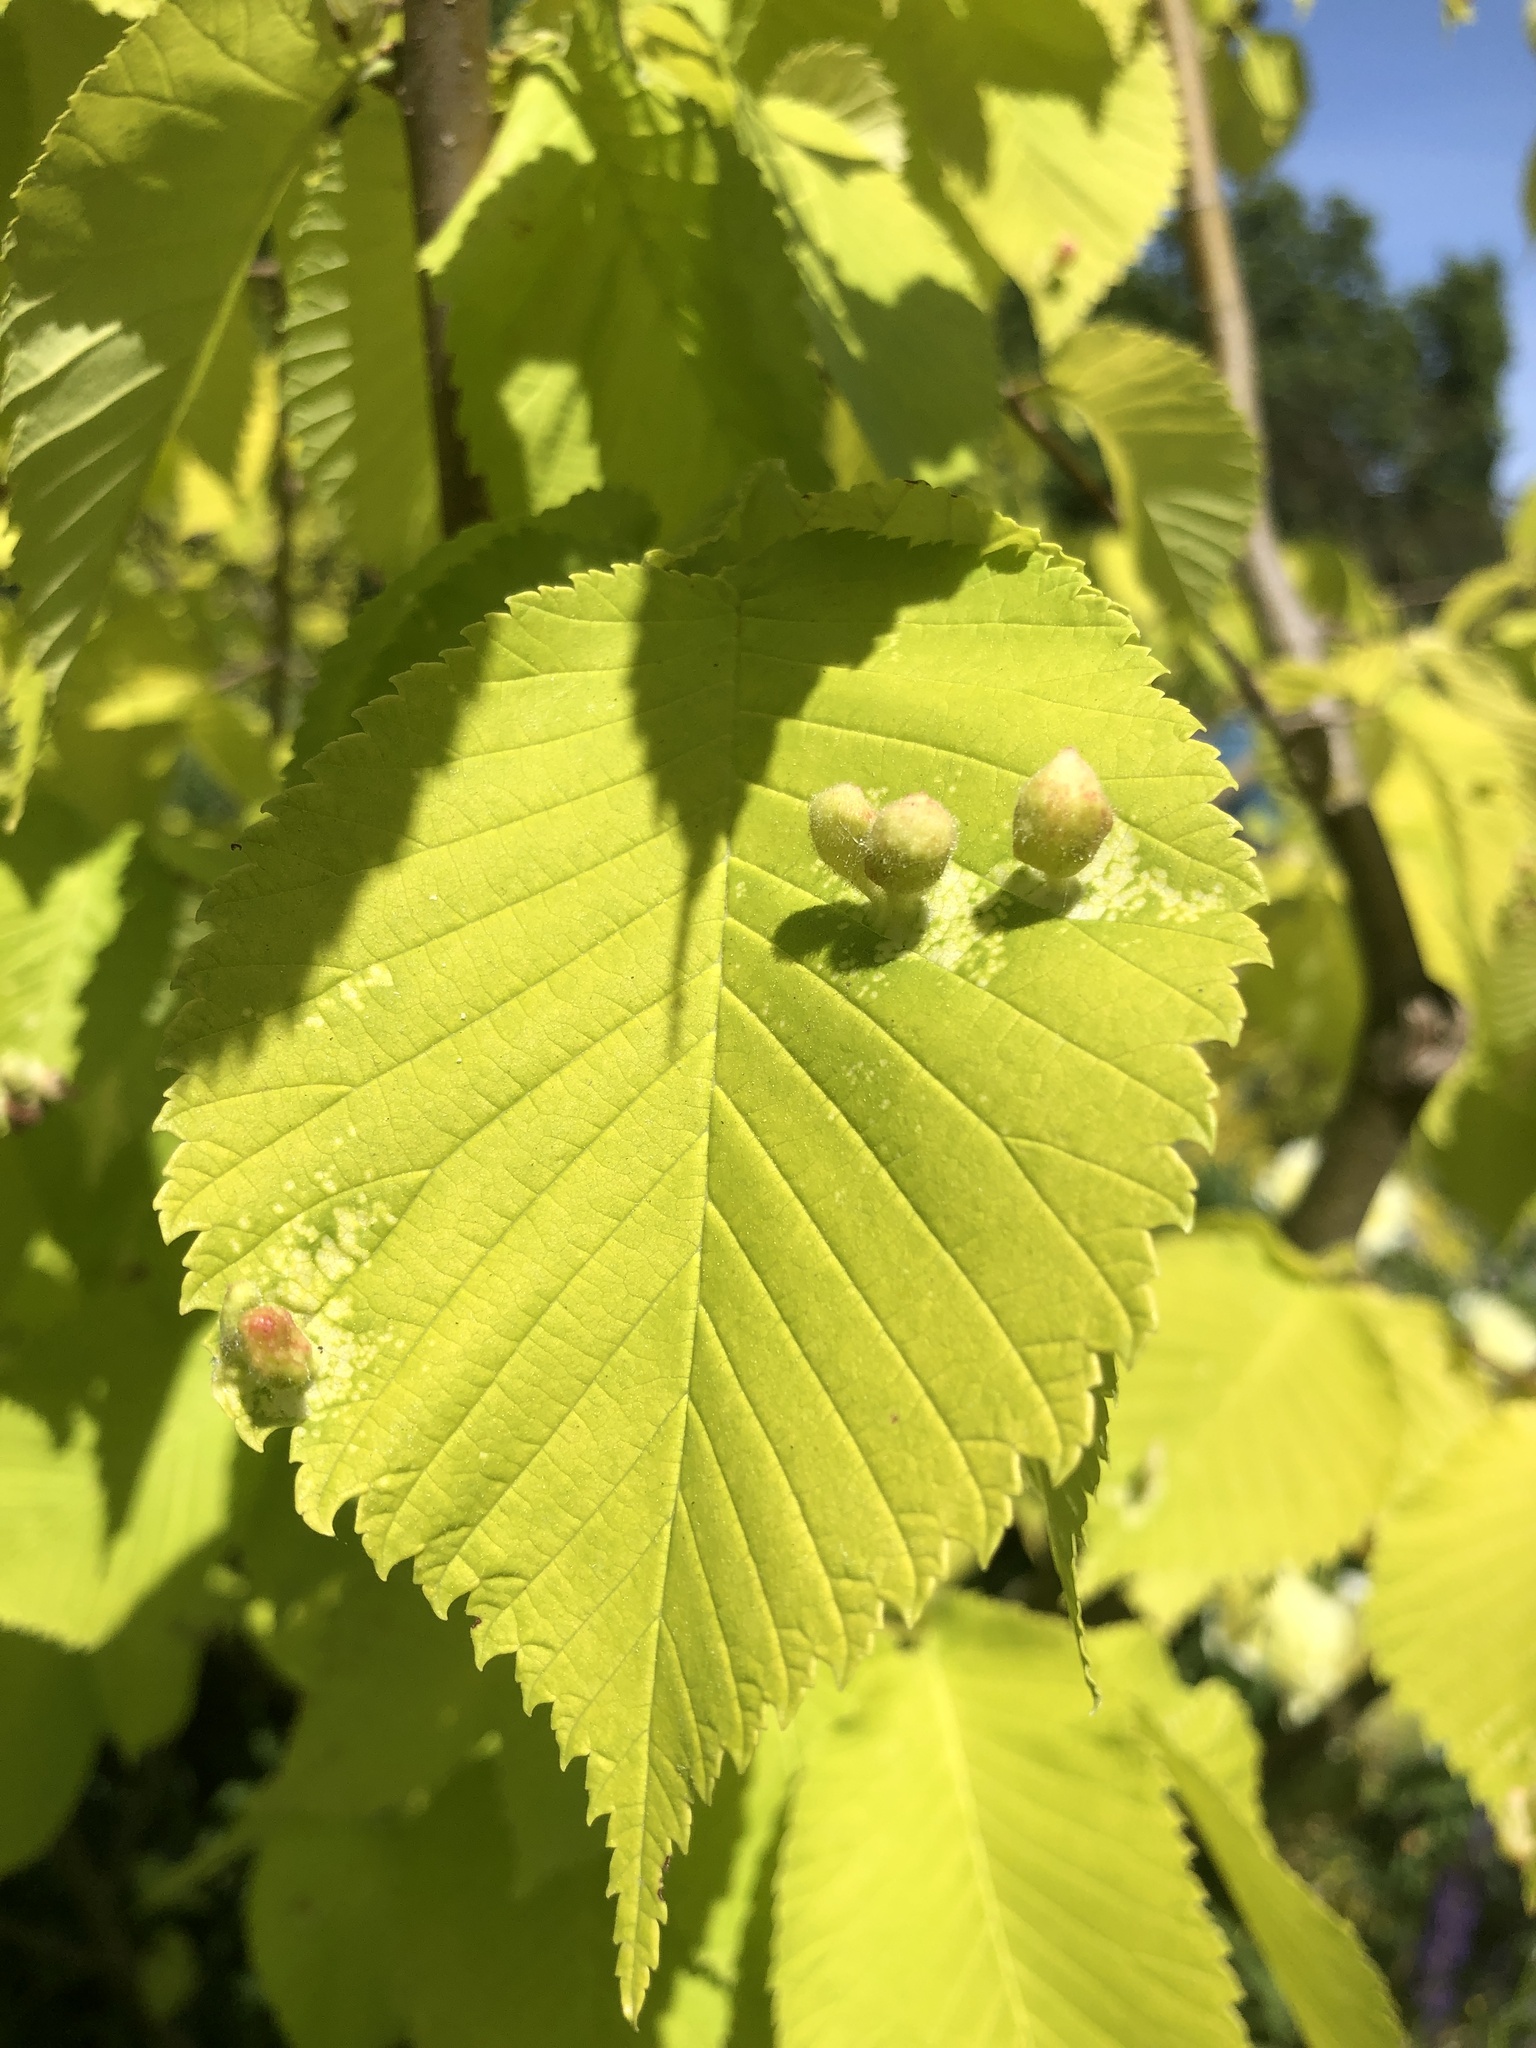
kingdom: Animalia
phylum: Arthropoda
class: Insecta
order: Hemiptera
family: Aphididae
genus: Tetraneura
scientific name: Tetraneura nigriabdominalis
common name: Aphid
